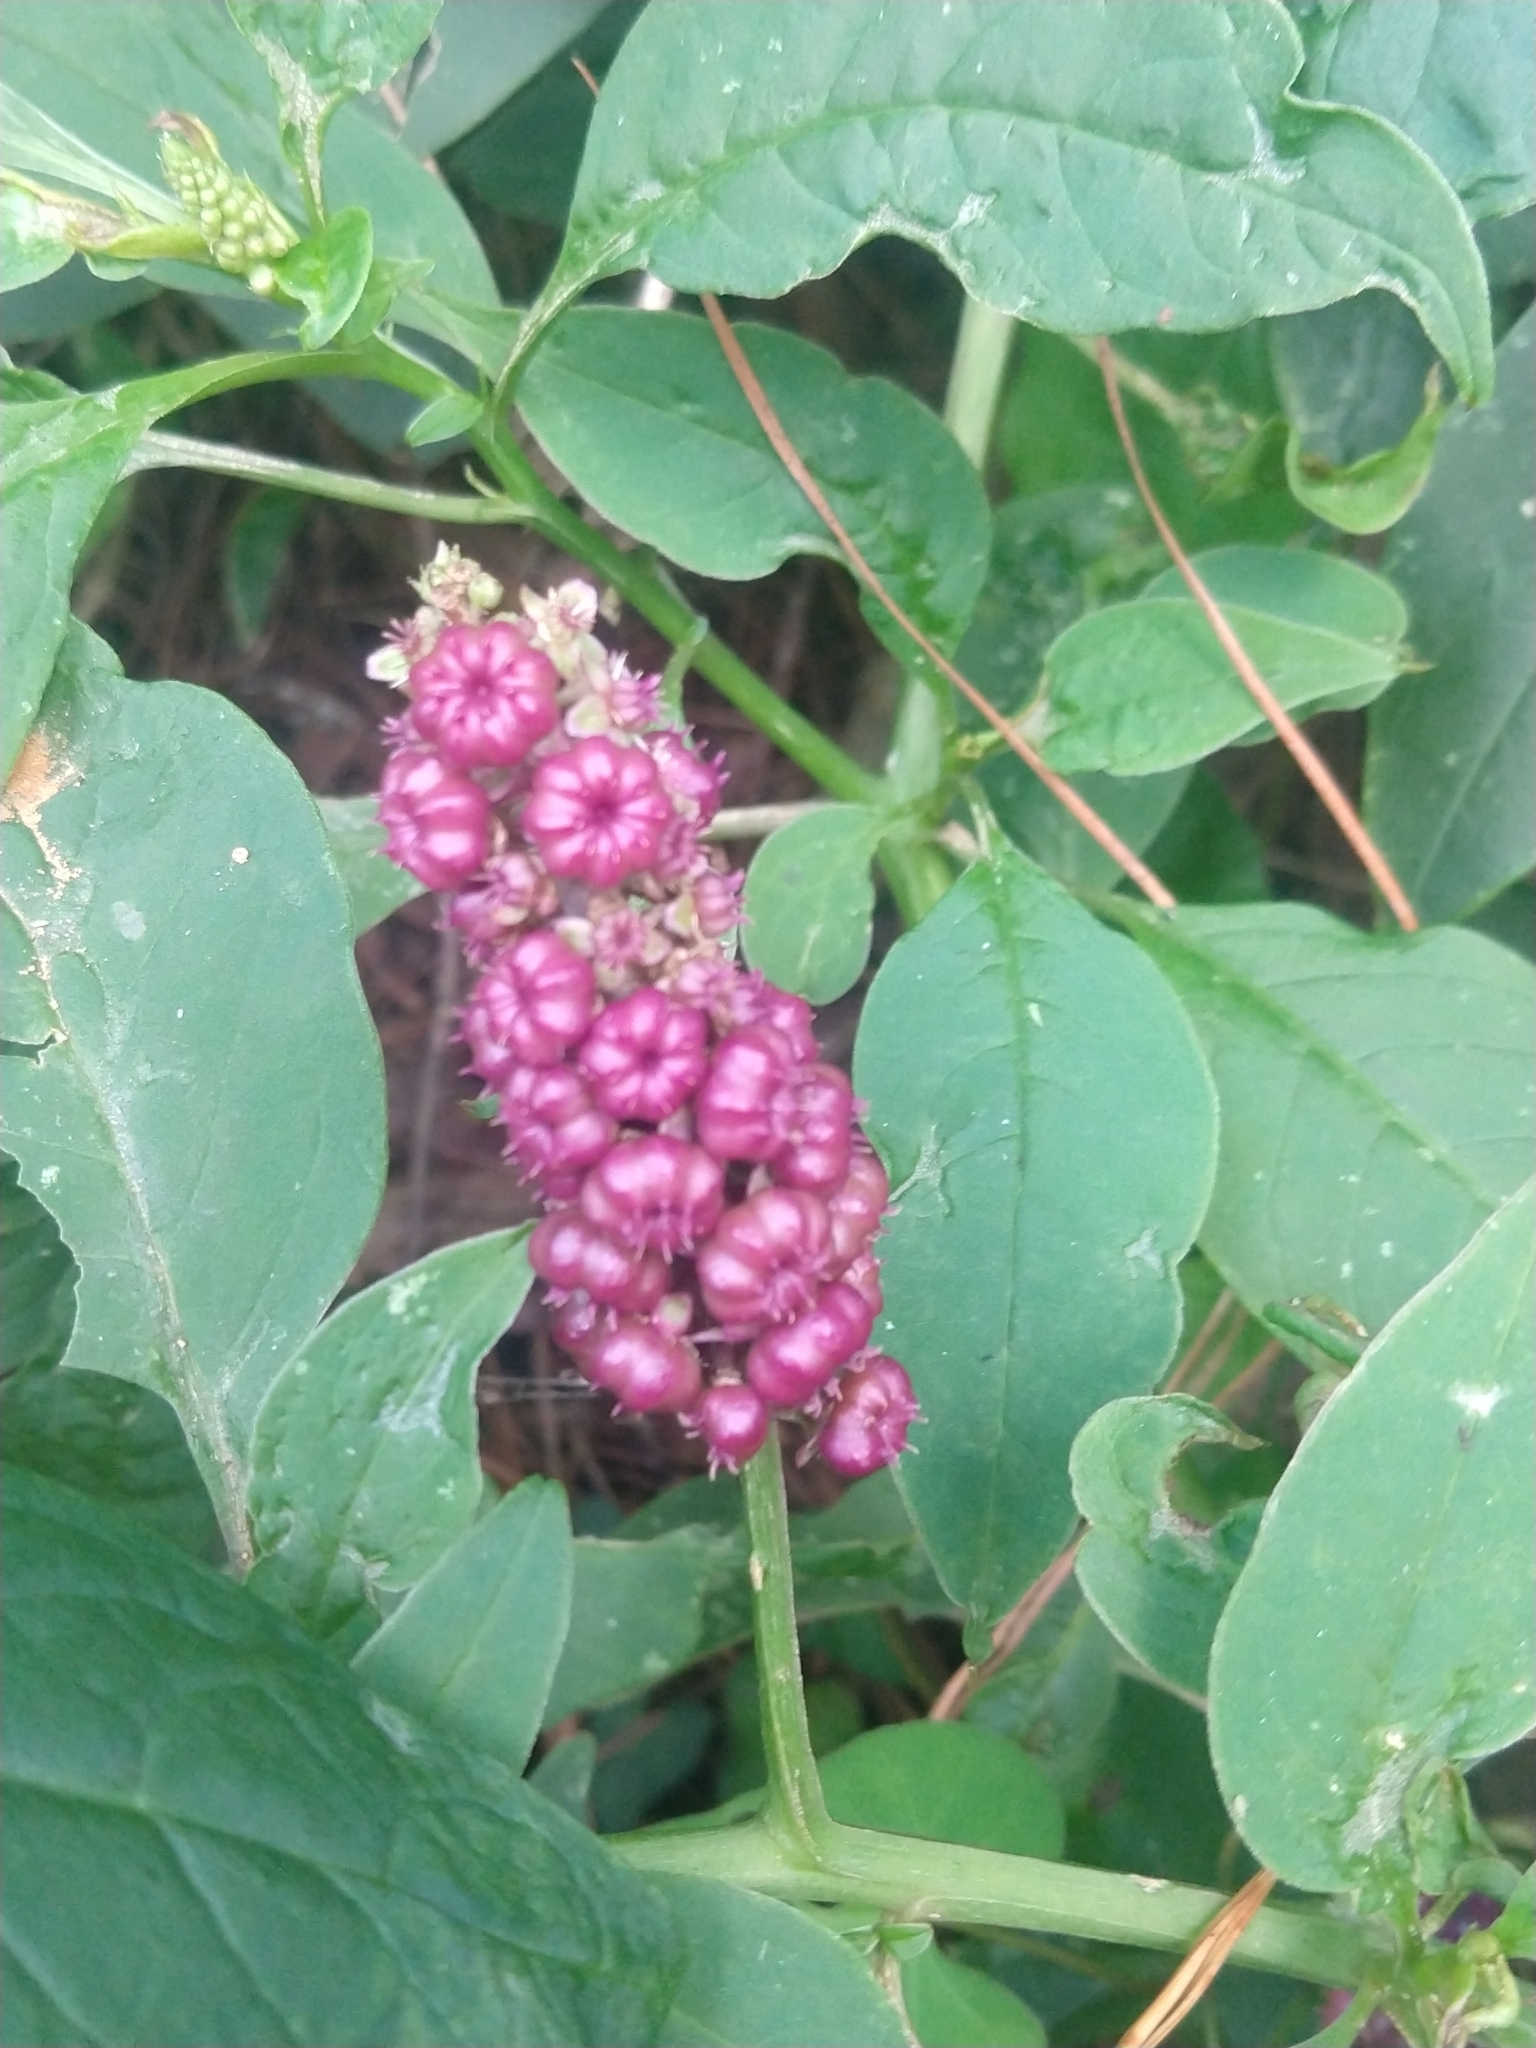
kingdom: Plantae
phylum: Tracheophyta
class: Magnoliopsida
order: Caryophyllales
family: Phytolaccaceae
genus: Phytolacca
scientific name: Phytolacca rugosa
